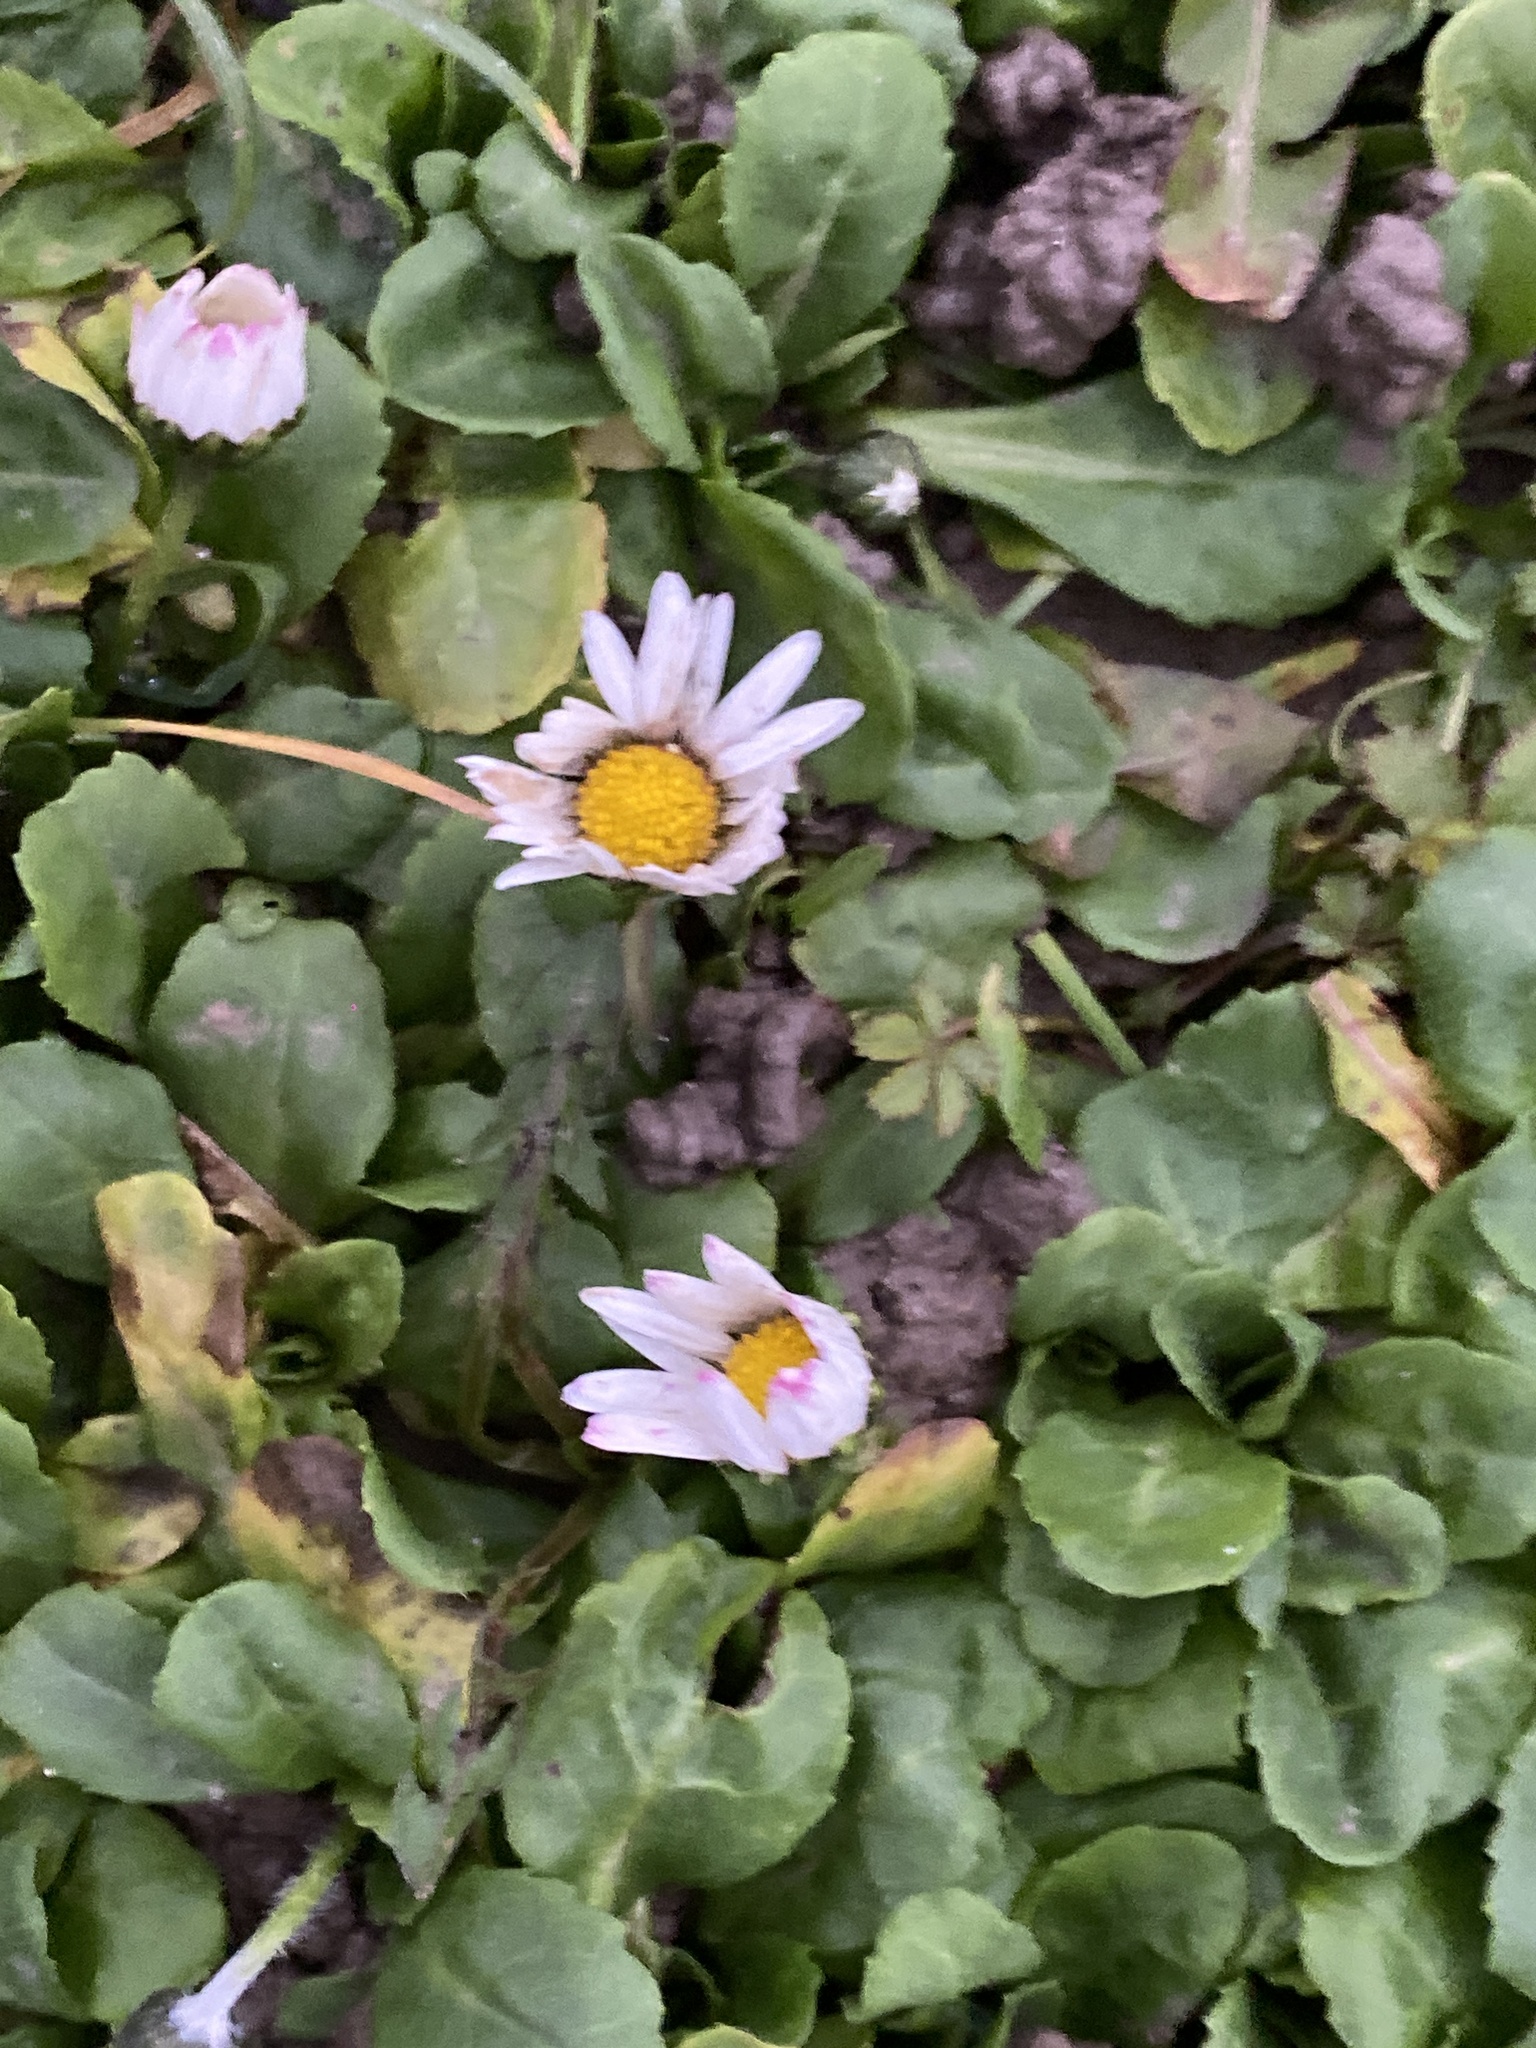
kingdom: Plantae
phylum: Tracheophyta
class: Magnoliopsida
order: Asterales
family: Asteraceae
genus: Bellis
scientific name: Bellis perennis
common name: Lawndaisy
